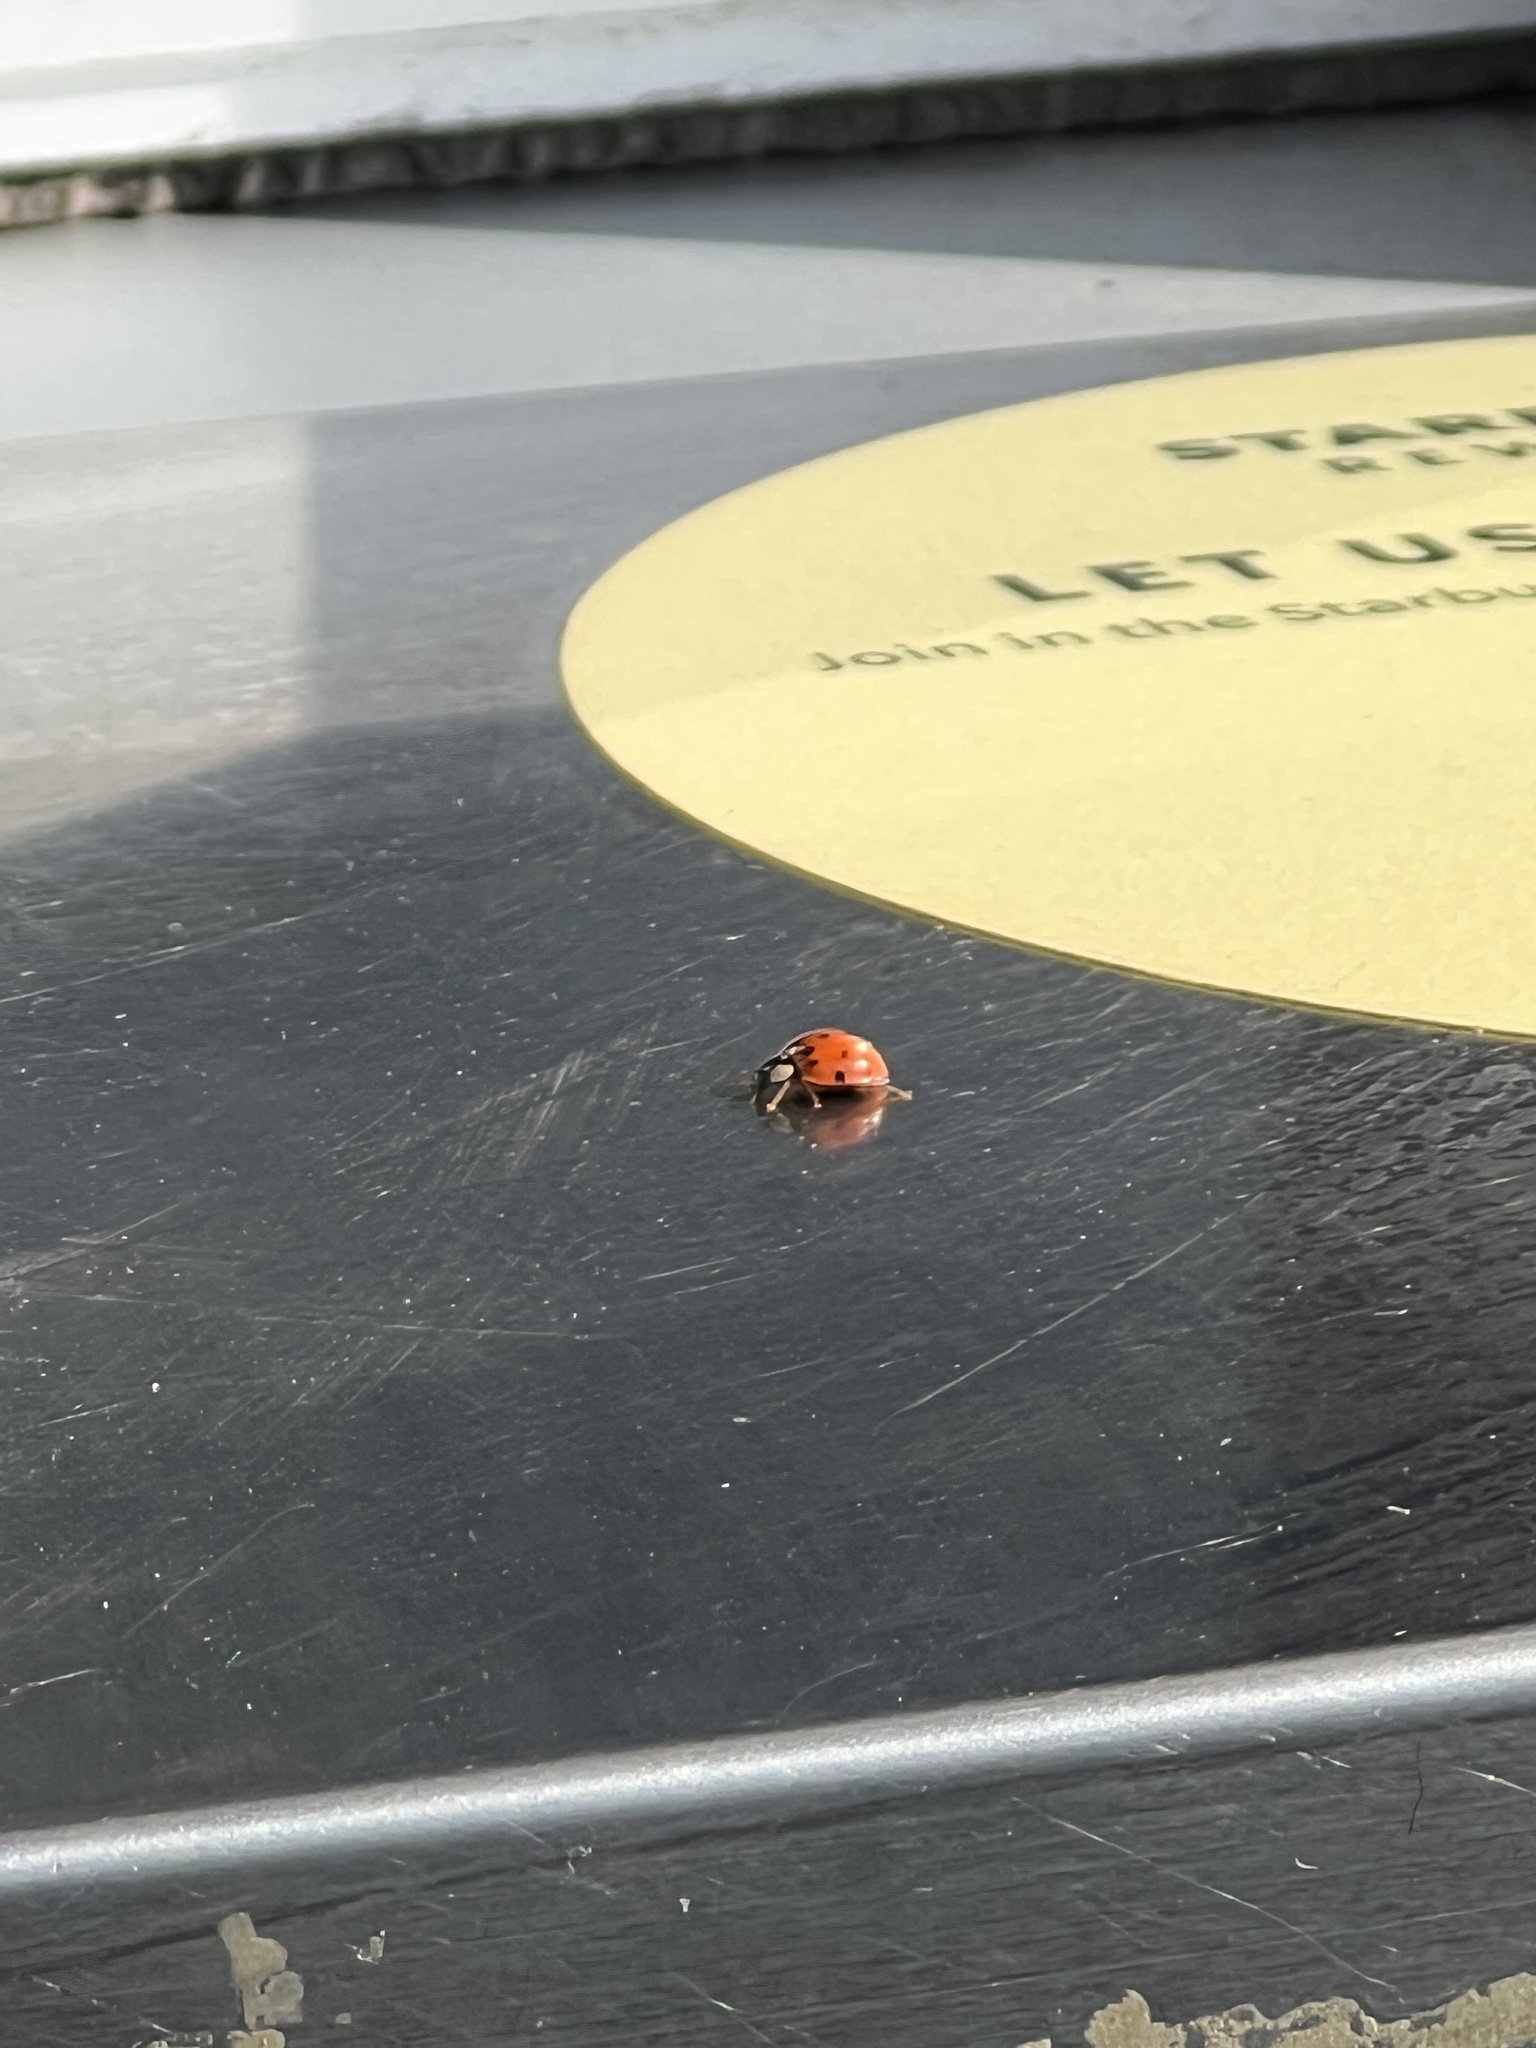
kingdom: Animalia
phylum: Arthropoda
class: Insecta
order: Coleoptera
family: Coccinellidae
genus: Harmonia
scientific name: Harmonia axyridis
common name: Harlequin ladybird
